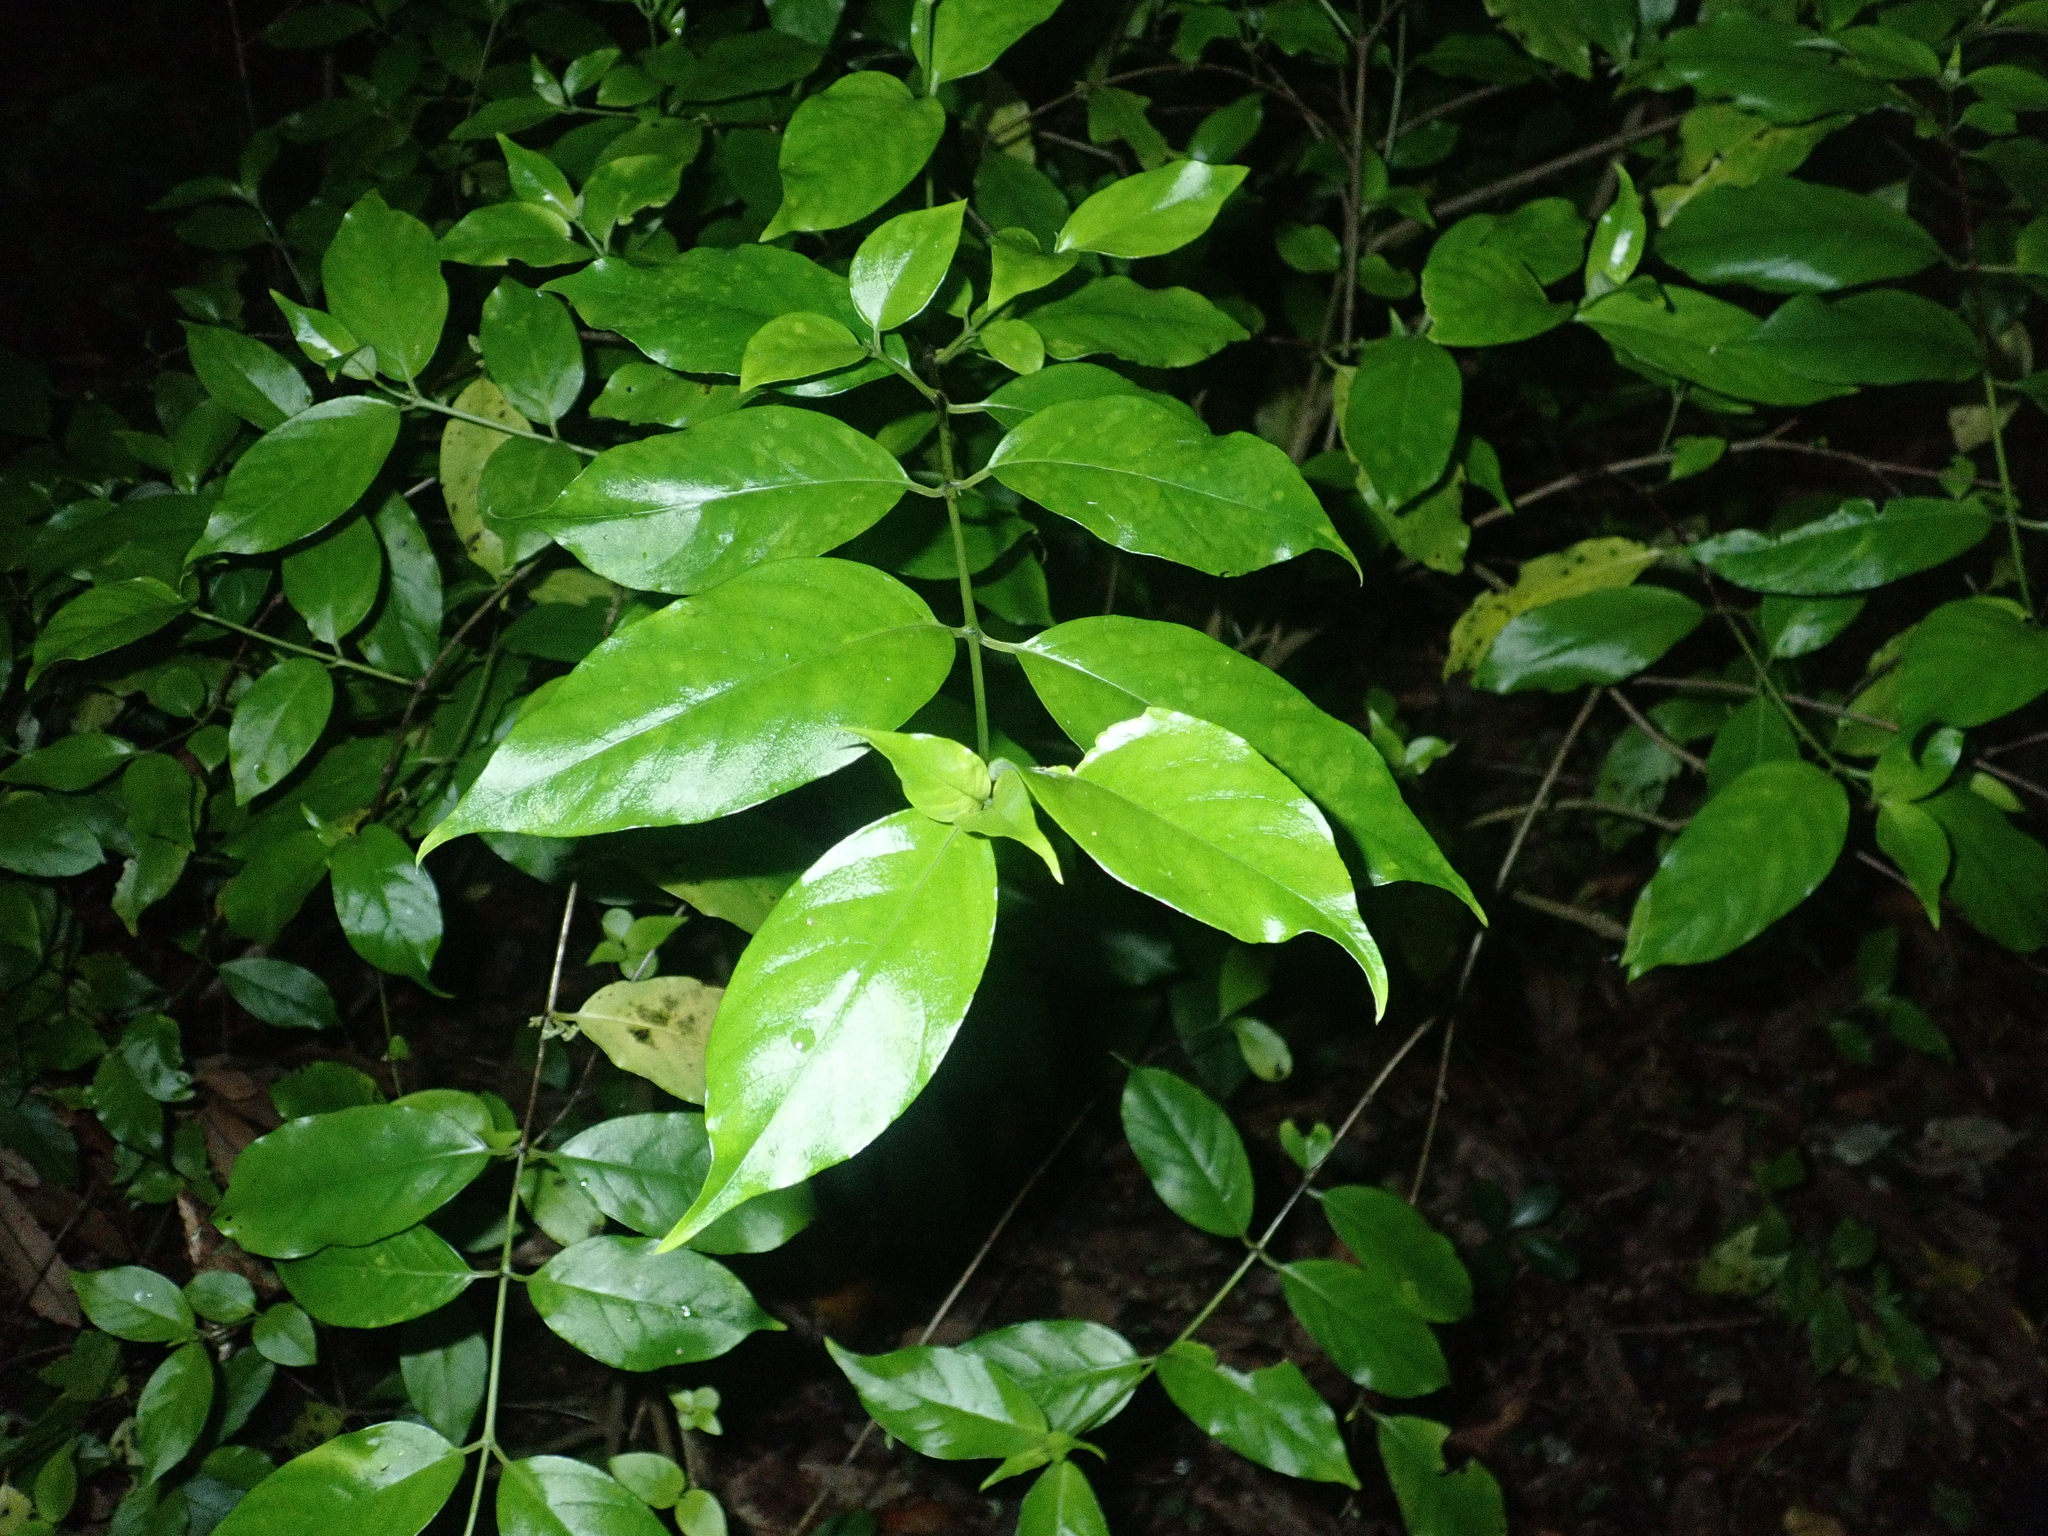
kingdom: Plantae
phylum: Tracheophyta
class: Magnoliopsida
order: Gentianales
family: Loganiaceae
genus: Geniostoma
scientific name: Geniostoma ligustrifolium
